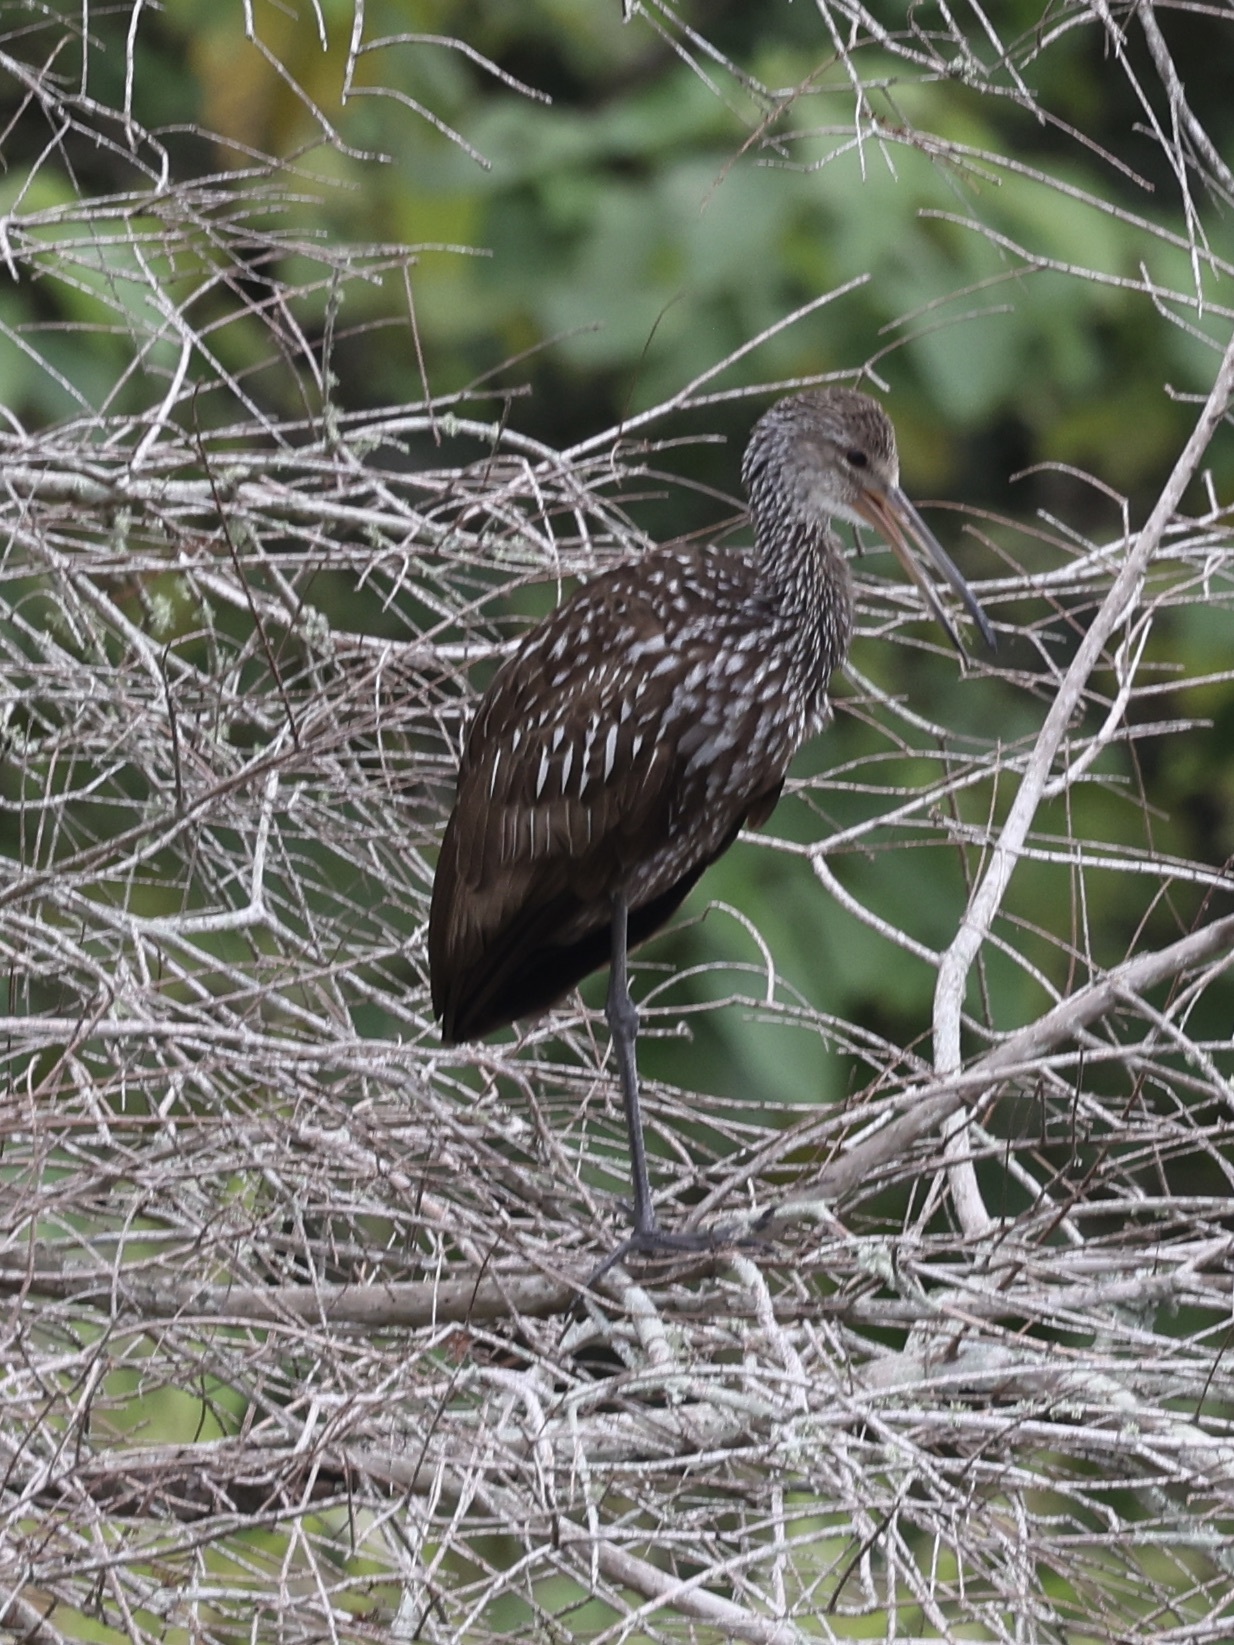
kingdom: Animalia
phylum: Chordata
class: Aves
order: Gruiformes
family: Aramidae
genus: Aramus
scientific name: Aramus guarauna
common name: Limpkin
